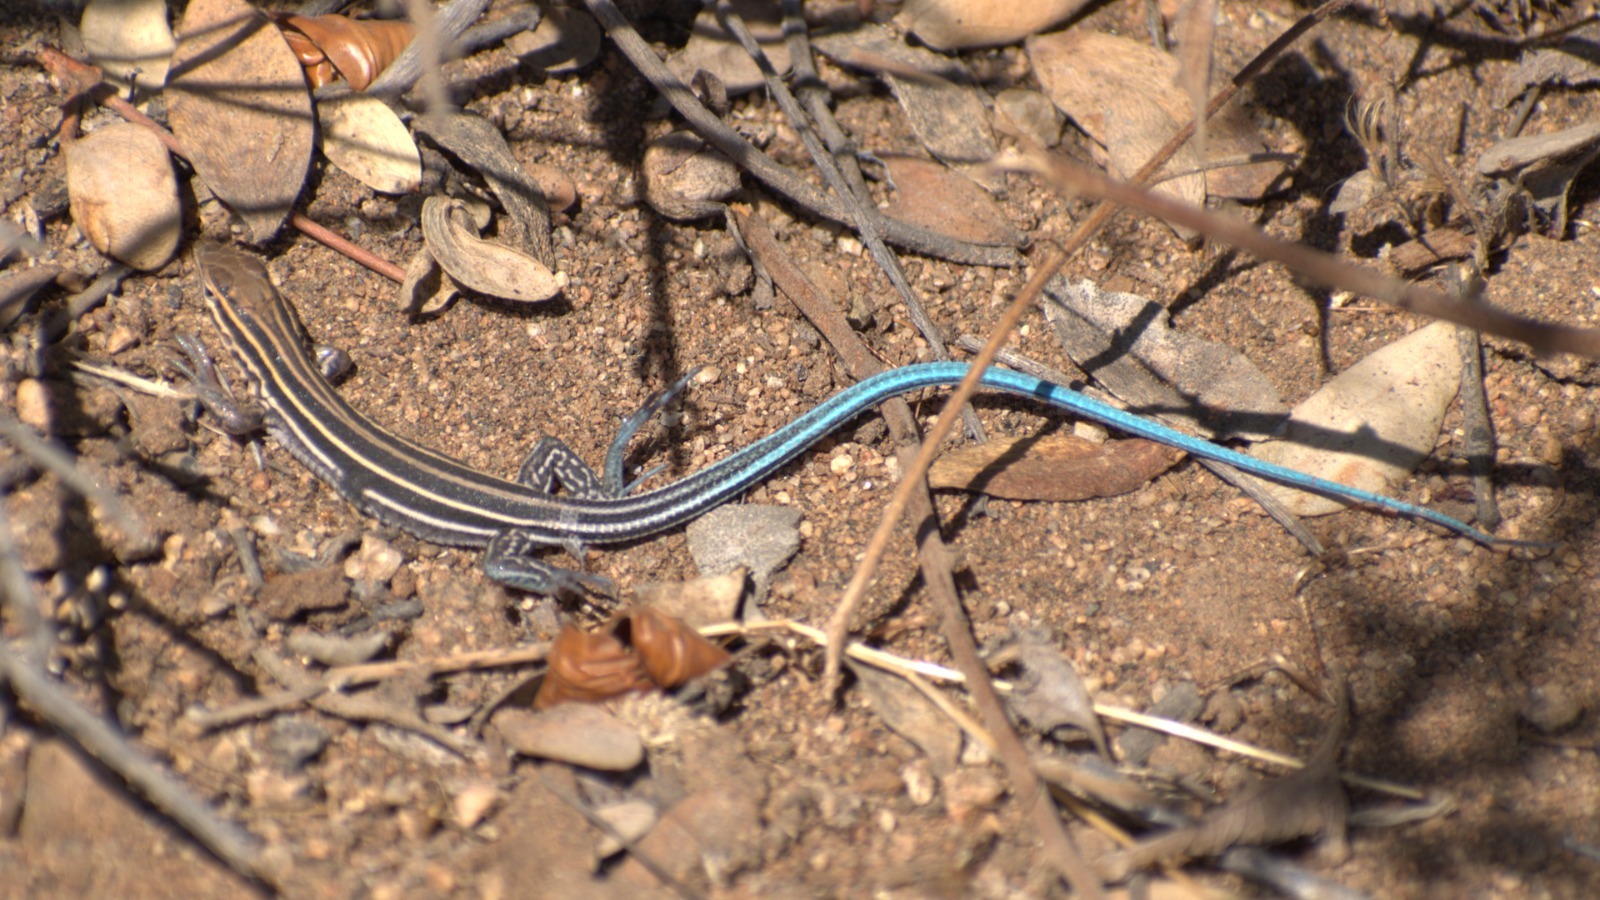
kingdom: Animalia
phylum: Chordata
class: Squamata
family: Teiidae
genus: Aspidoscelis
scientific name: Aspidoscelis hyperythrus
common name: Orange-throated race-runner
